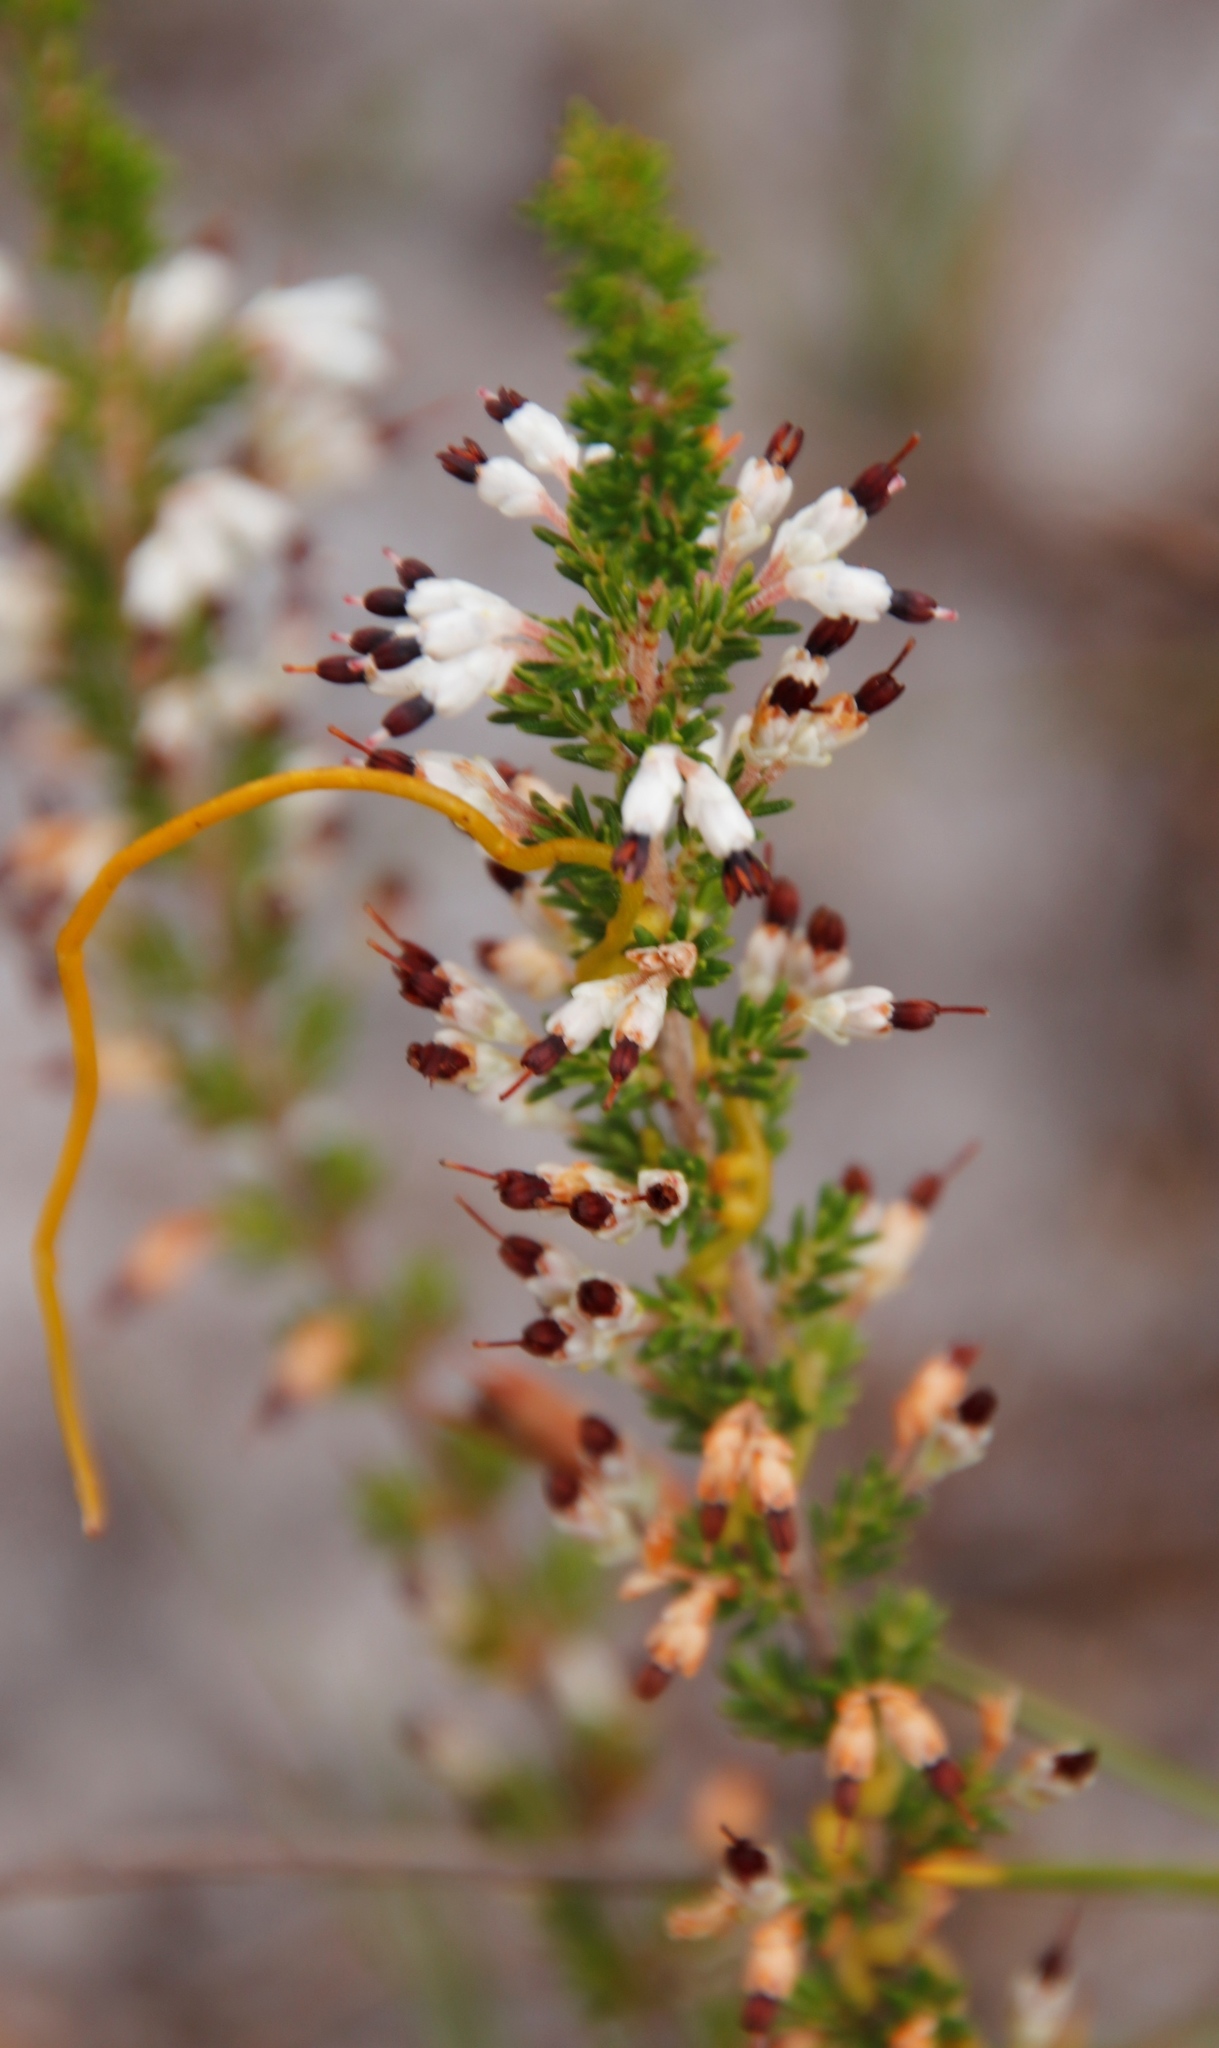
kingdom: Plantae
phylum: Tracheophyta
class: Magnoliopsida
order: Ericales
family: Ericaceae
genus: Erica
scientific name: Erica imbricata
